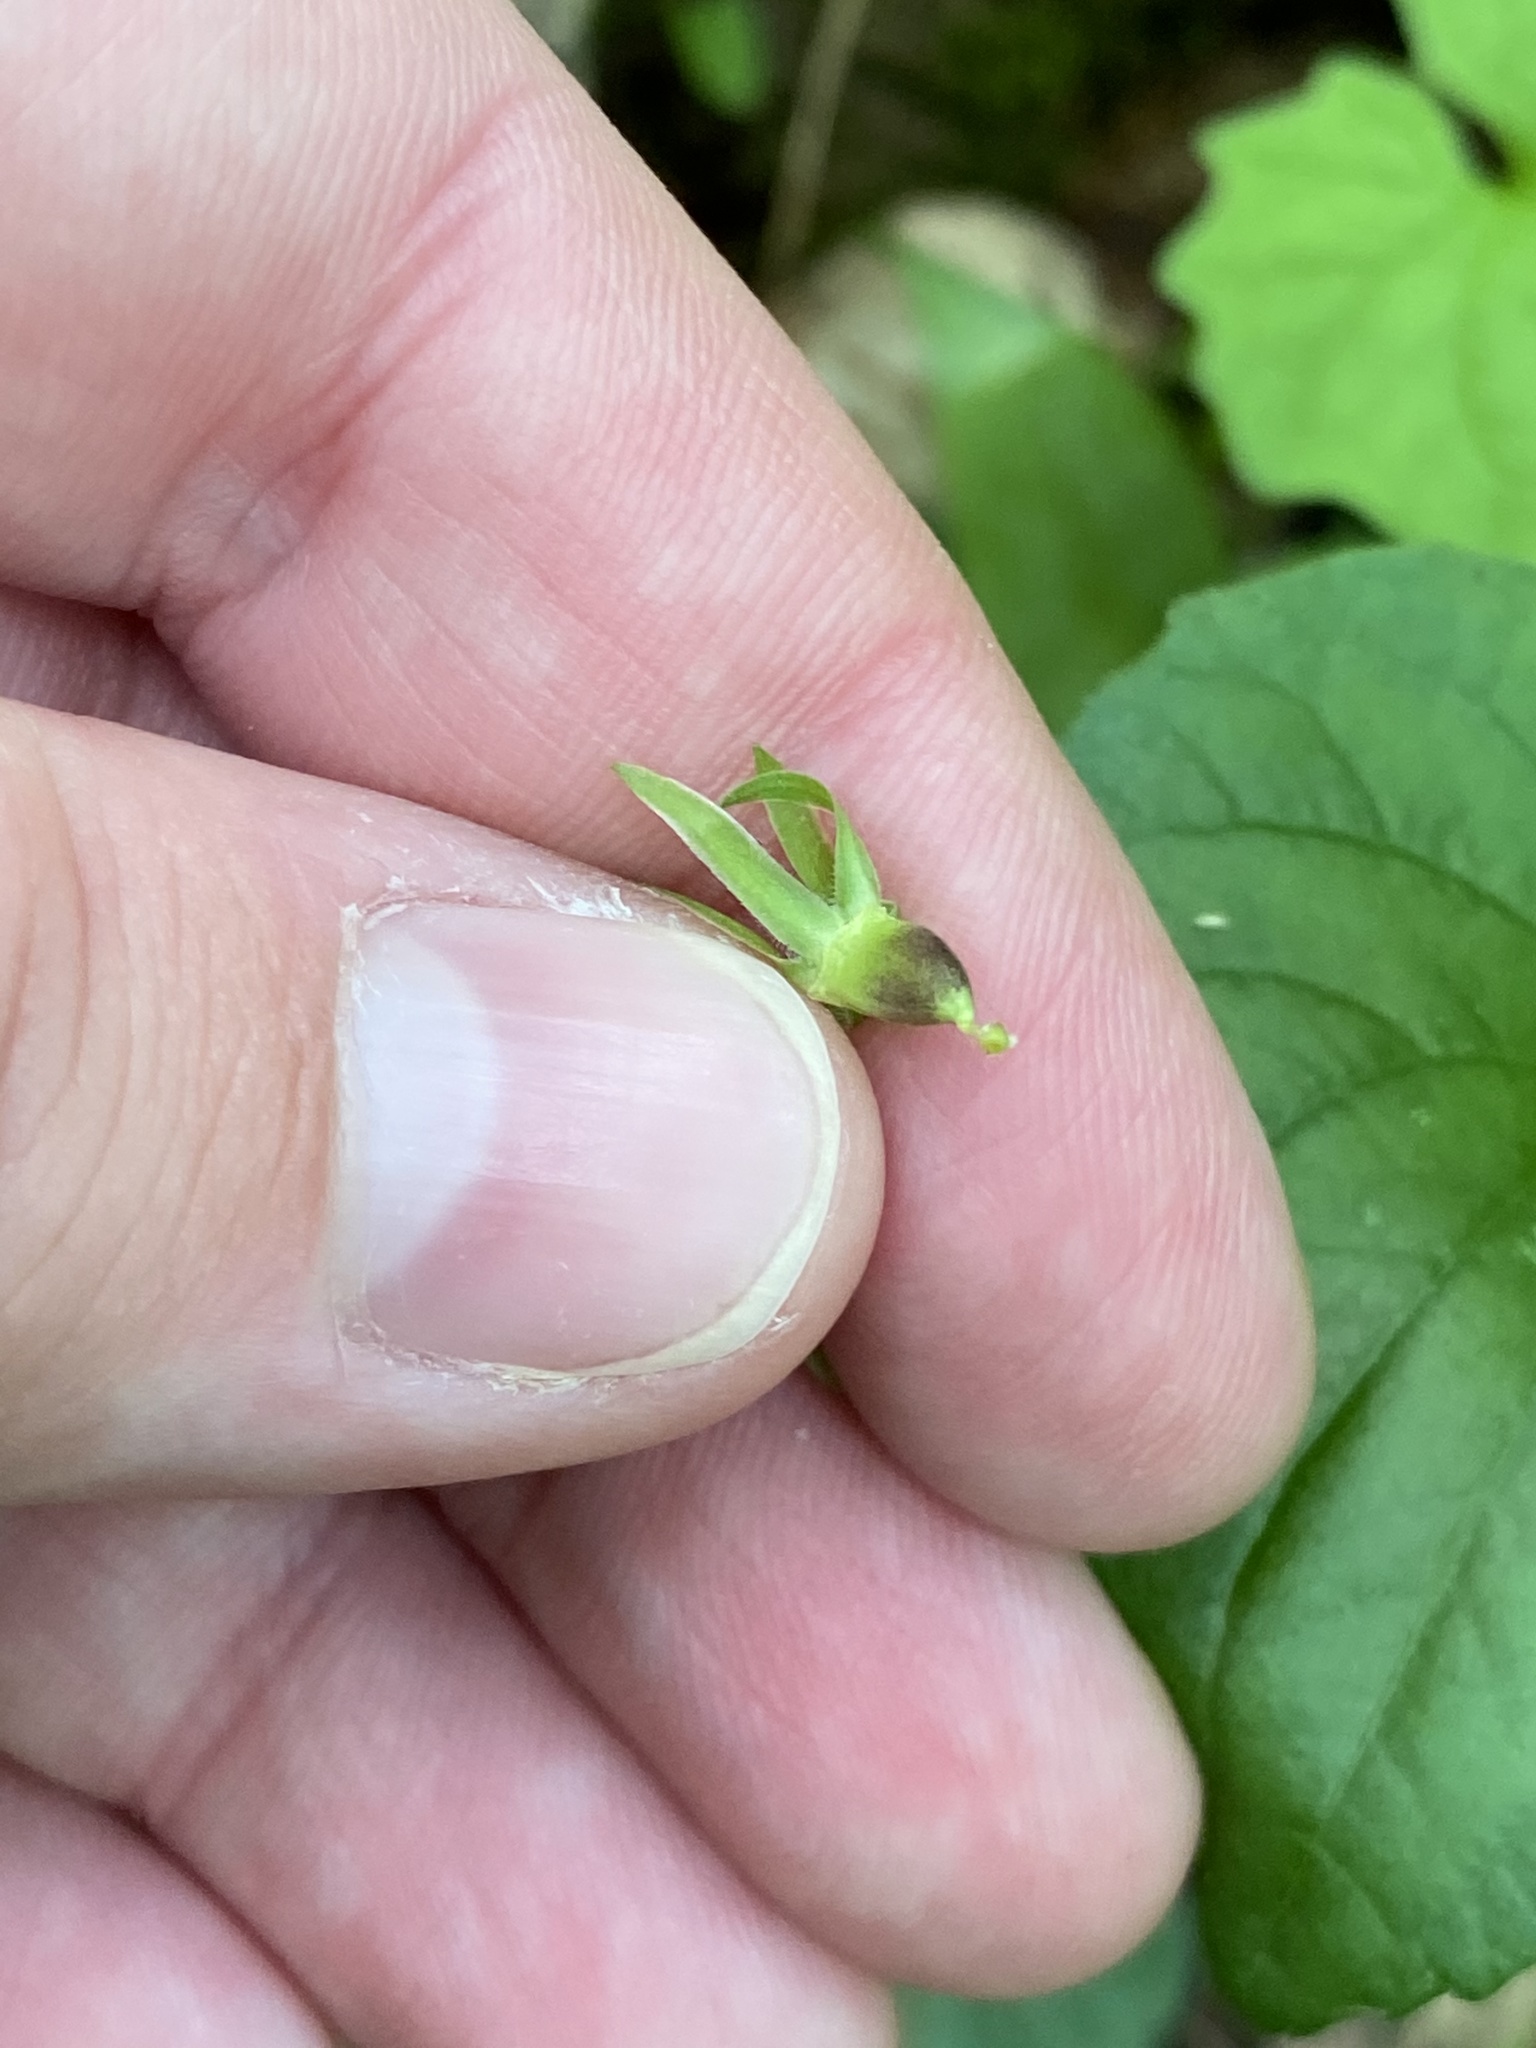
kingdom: Plantae
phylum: Tracheophyta
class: Magnoliopsida
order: Malpighiales
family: Violaceae
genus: Viola
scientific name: Viola eriocarpa
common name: Smooth yellow violet
